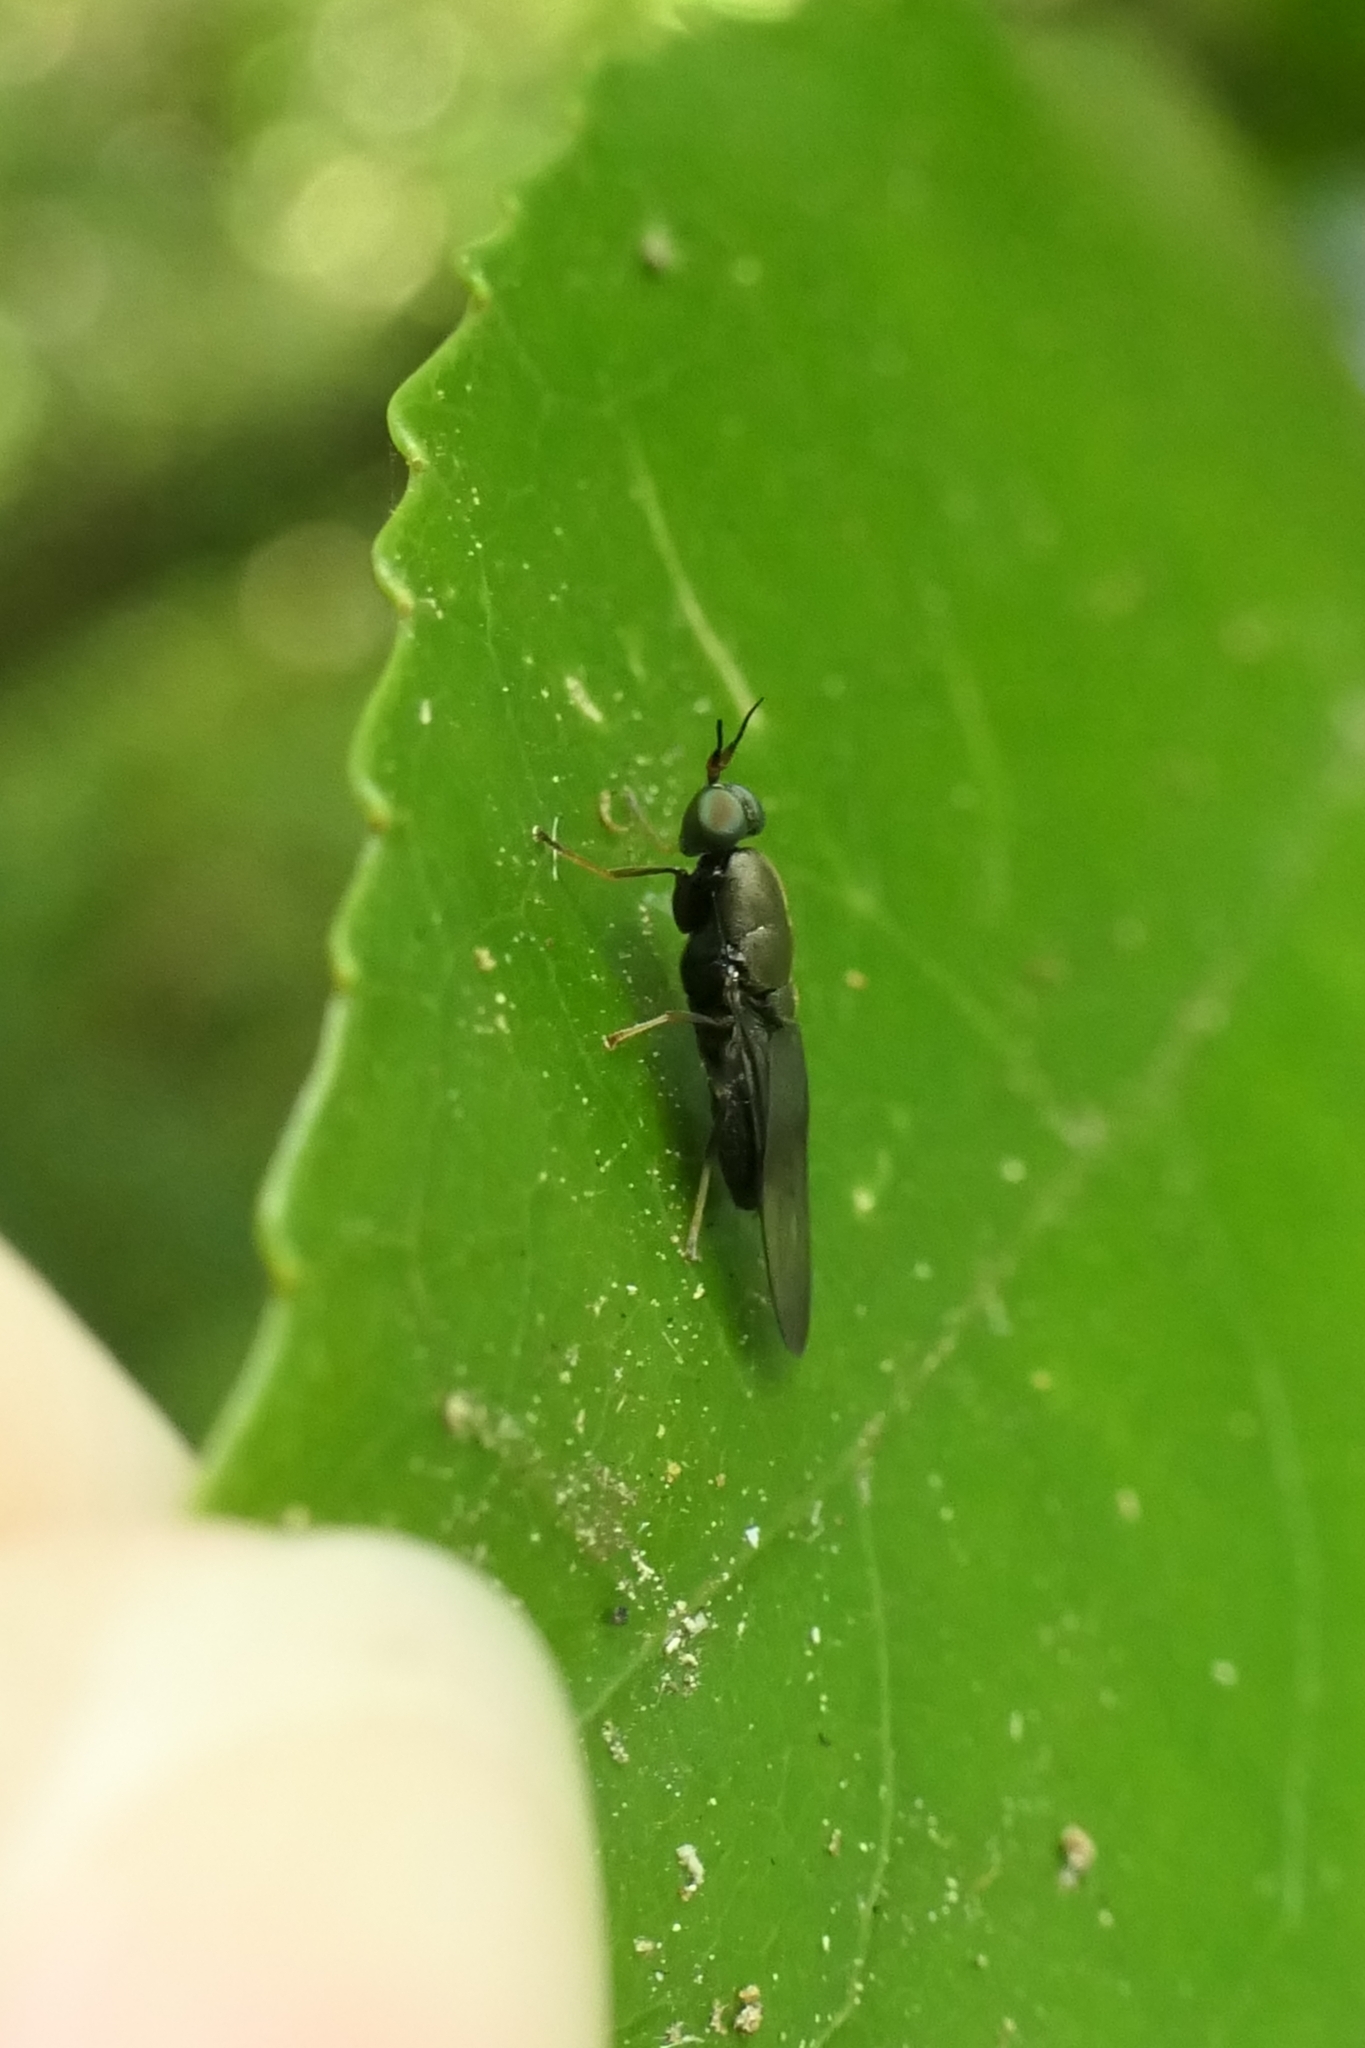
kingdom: Animalia
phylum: Arthropoda
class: Insecta
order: Diptera
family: Stratiomyidae
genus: Dysbiota
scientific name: Dysbiota parvula
